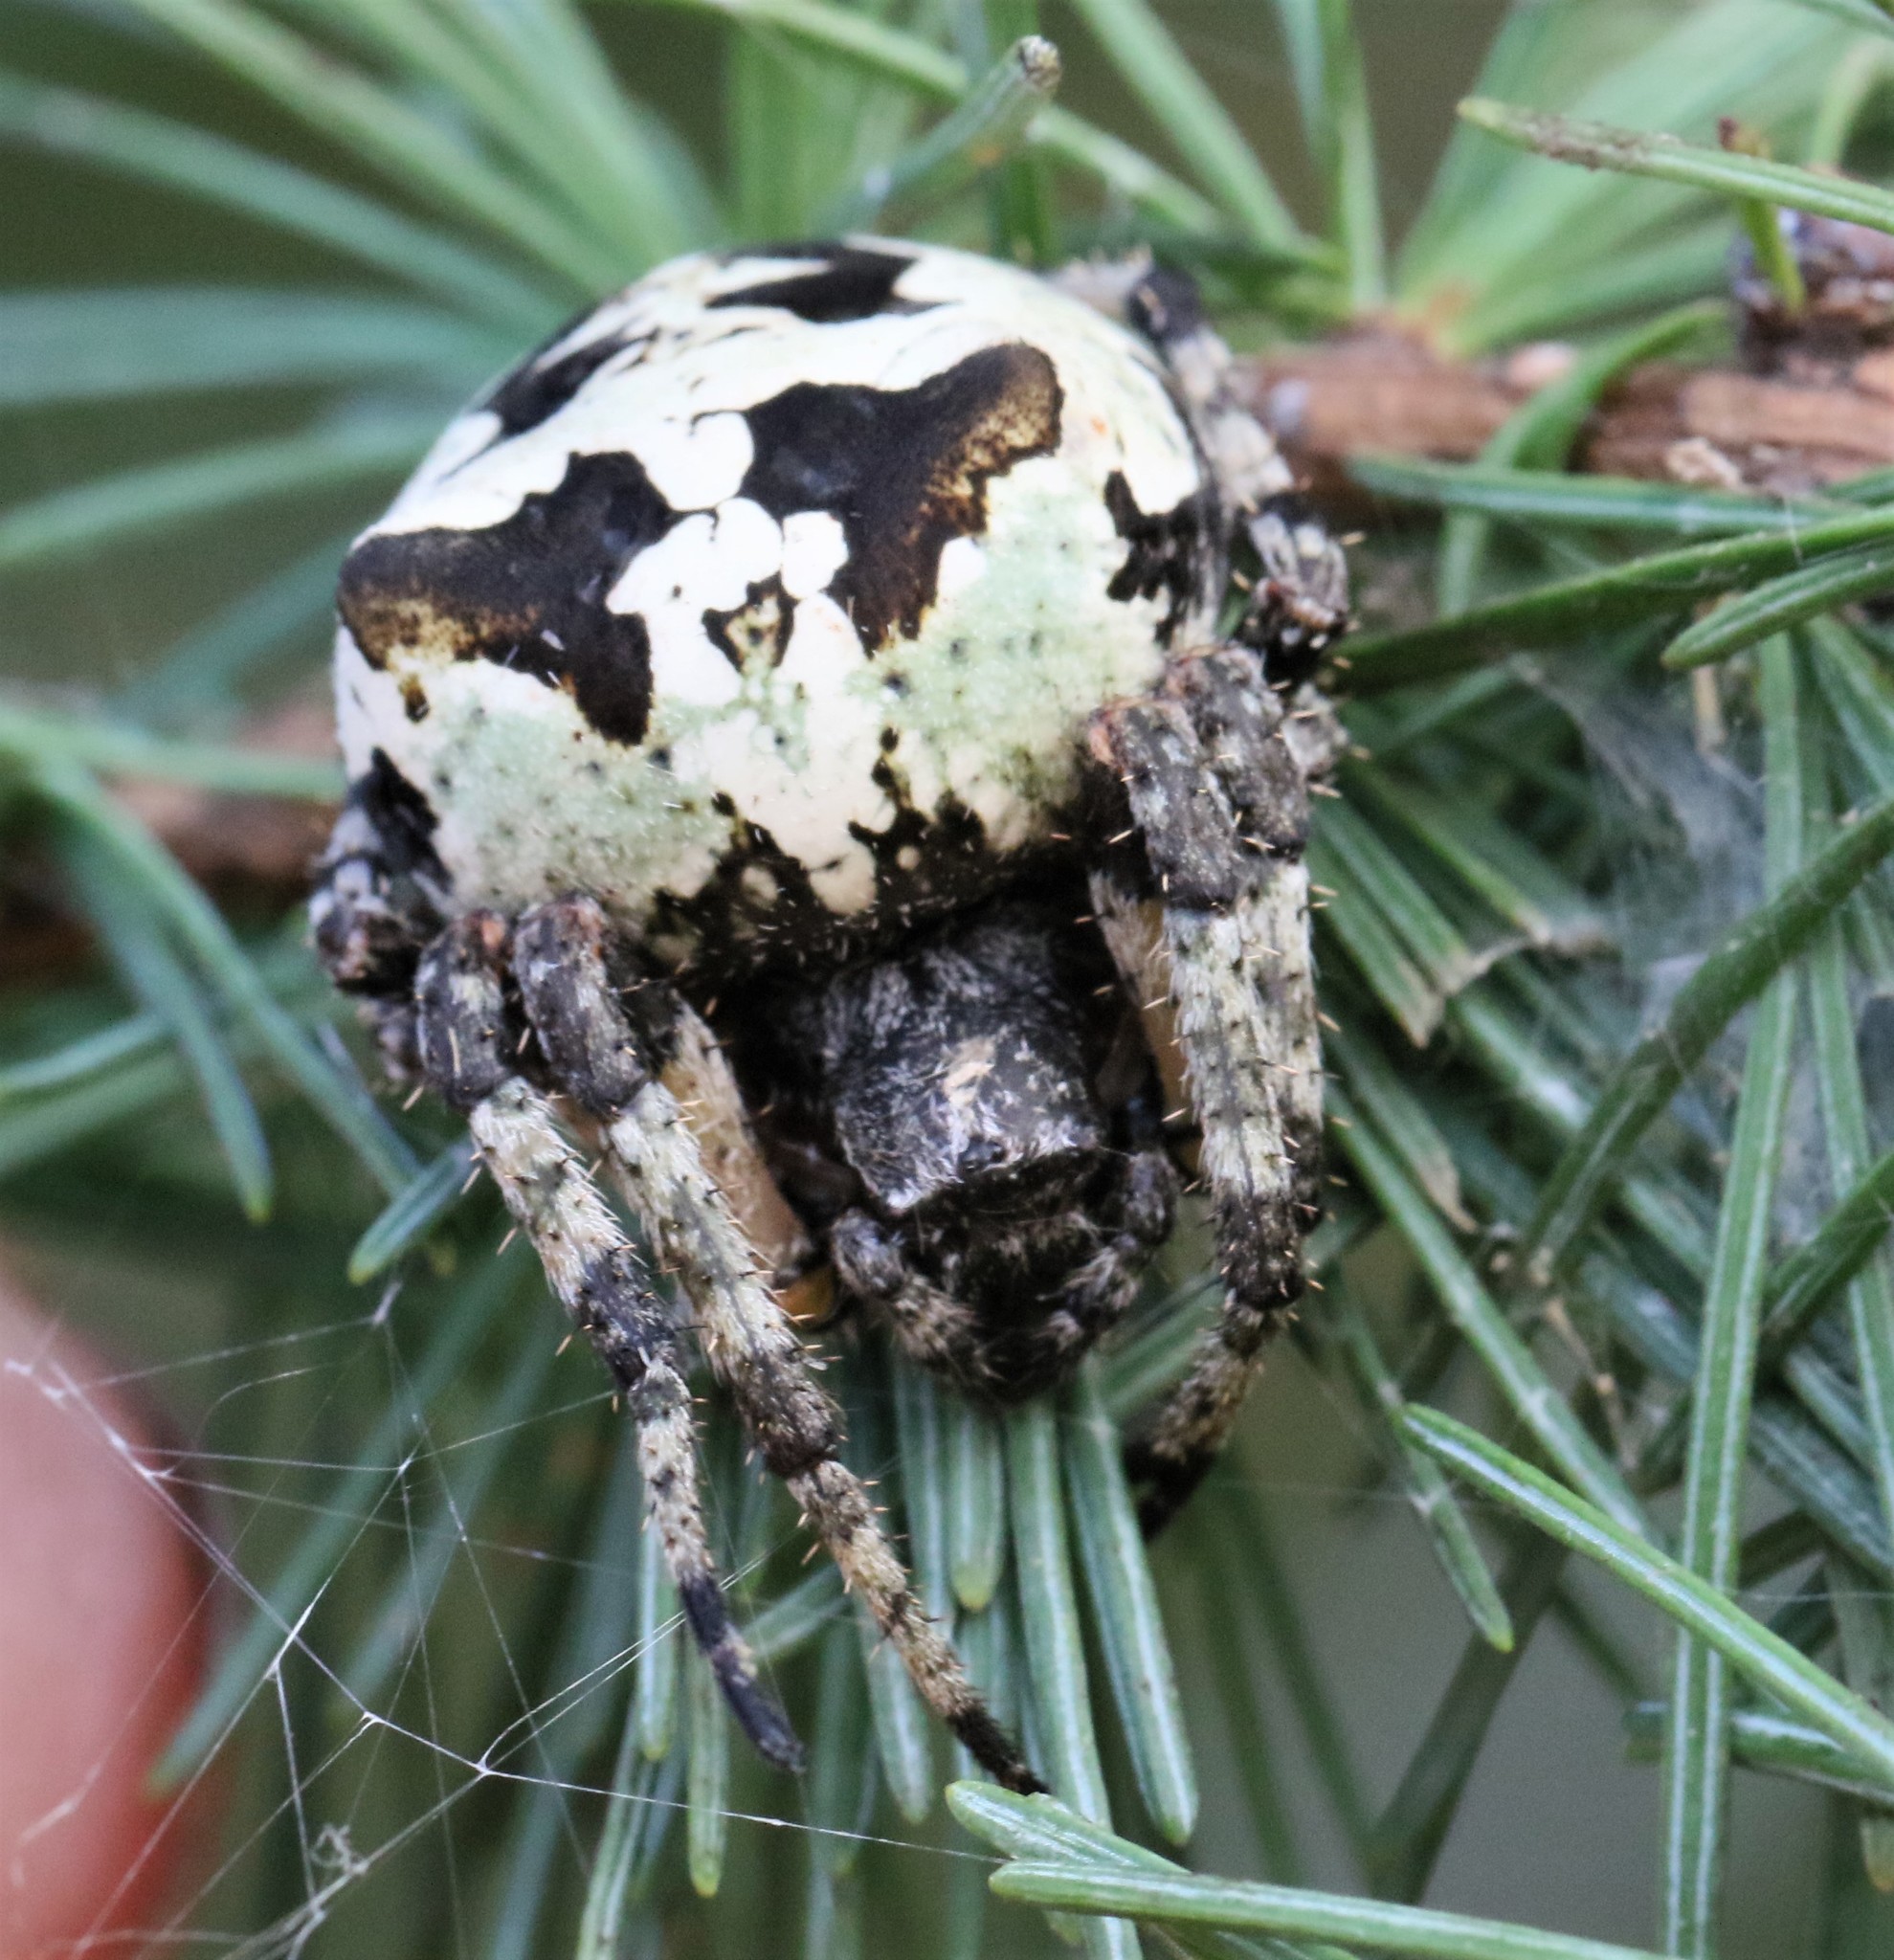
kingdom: Animalia
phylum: Arthropoda
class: Arachnida
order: Araneae
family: Araneidae
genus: Araneus
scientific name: Araneus bicentenarius
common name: Giant lichen orbweaver
